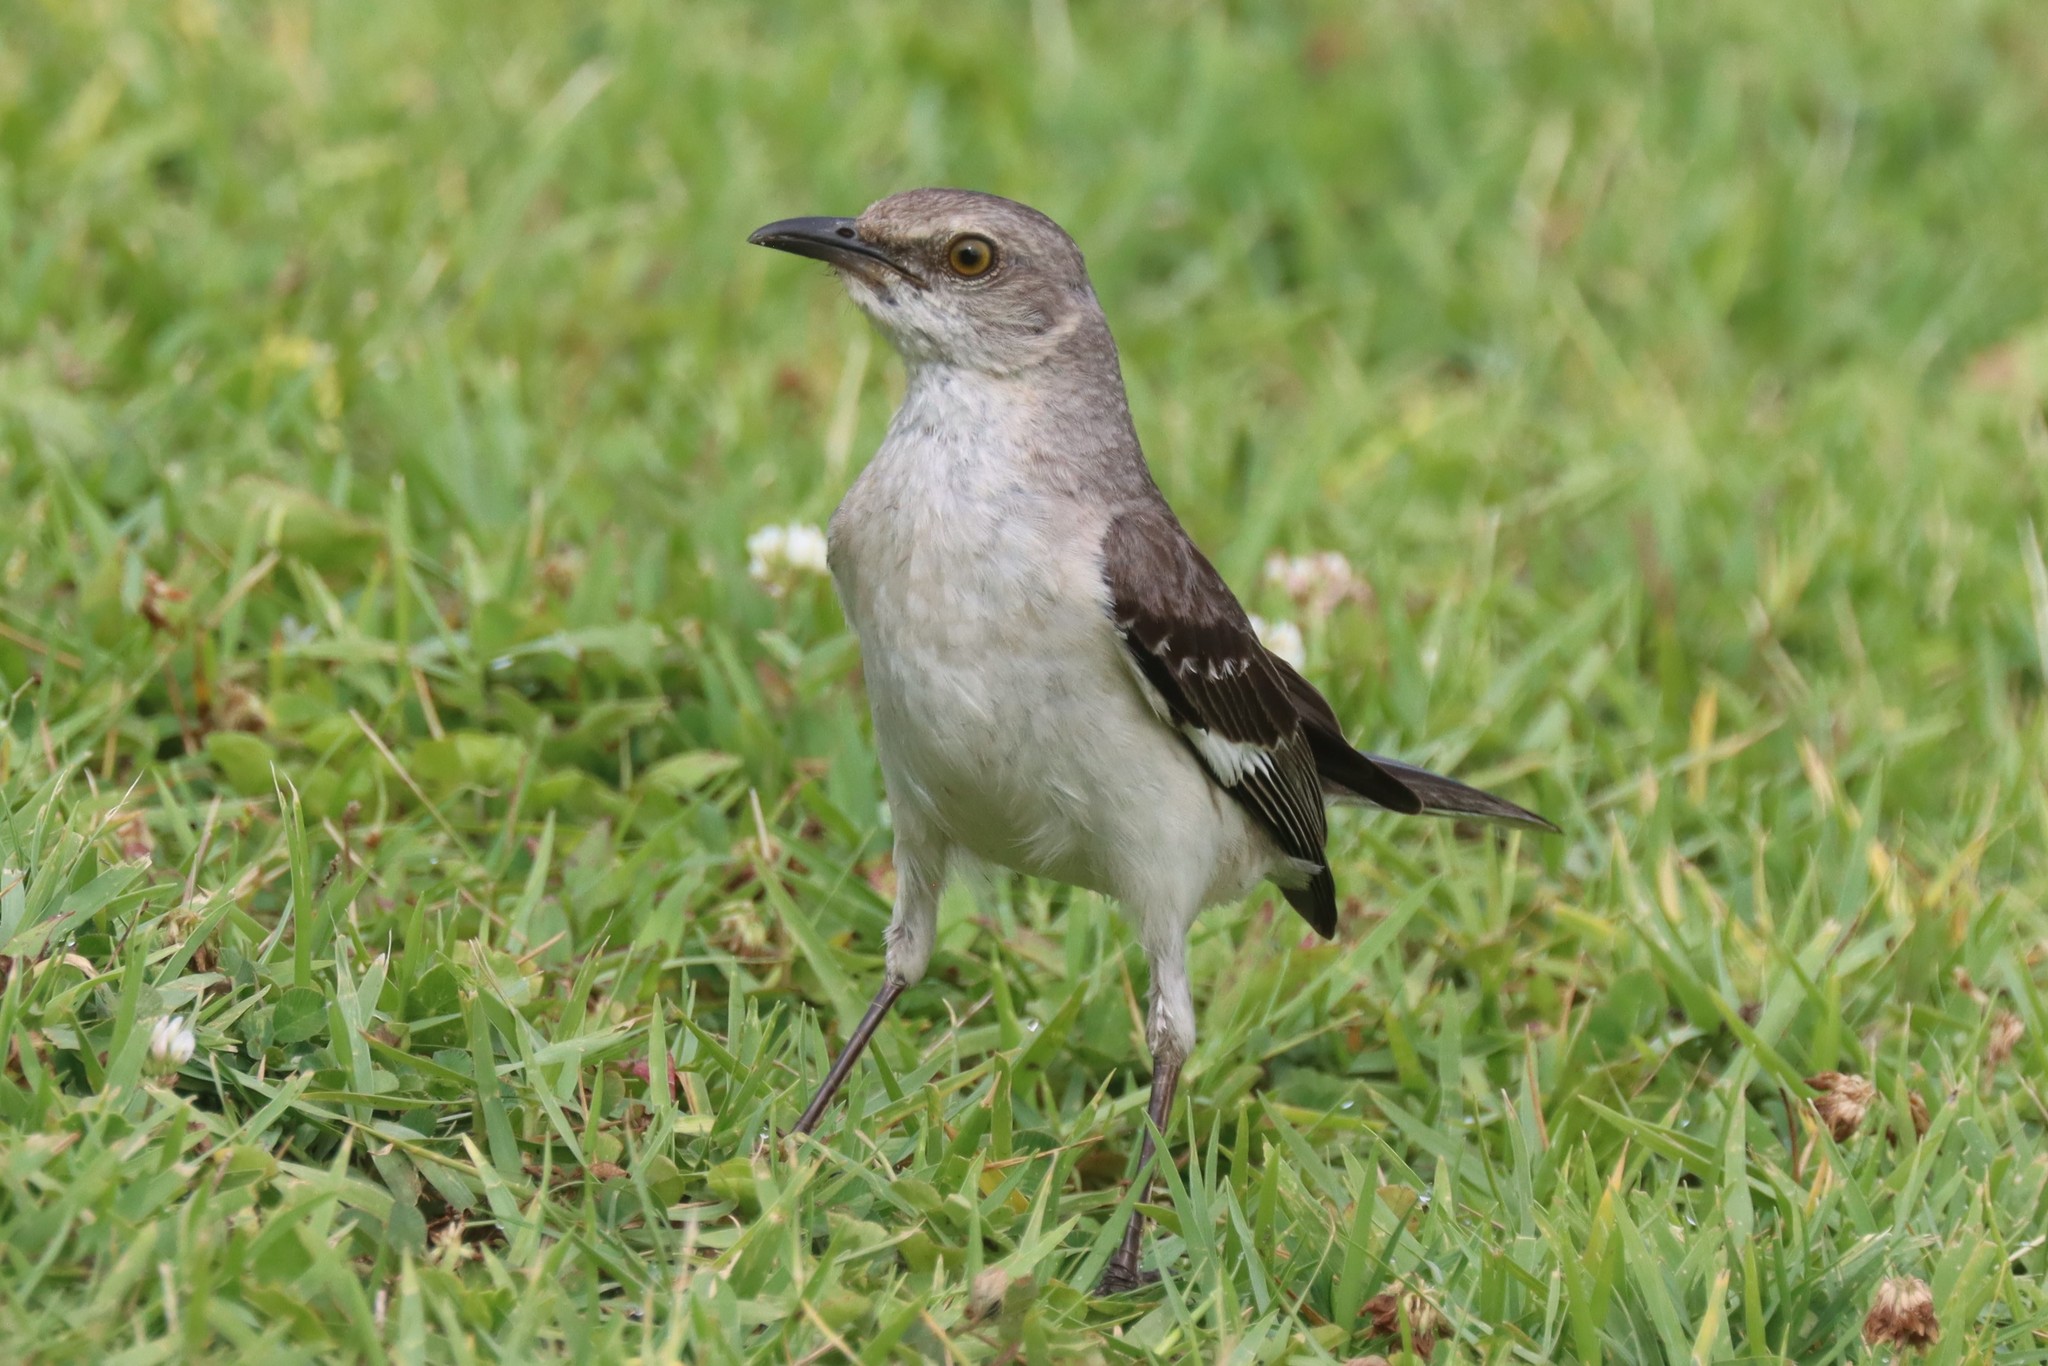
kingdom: Animalia
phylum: Chordata
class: Aves
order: Passeriformes
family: Mimidae
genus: Mimus
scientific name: Mimus polyglottos
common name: Northern mockingbird
